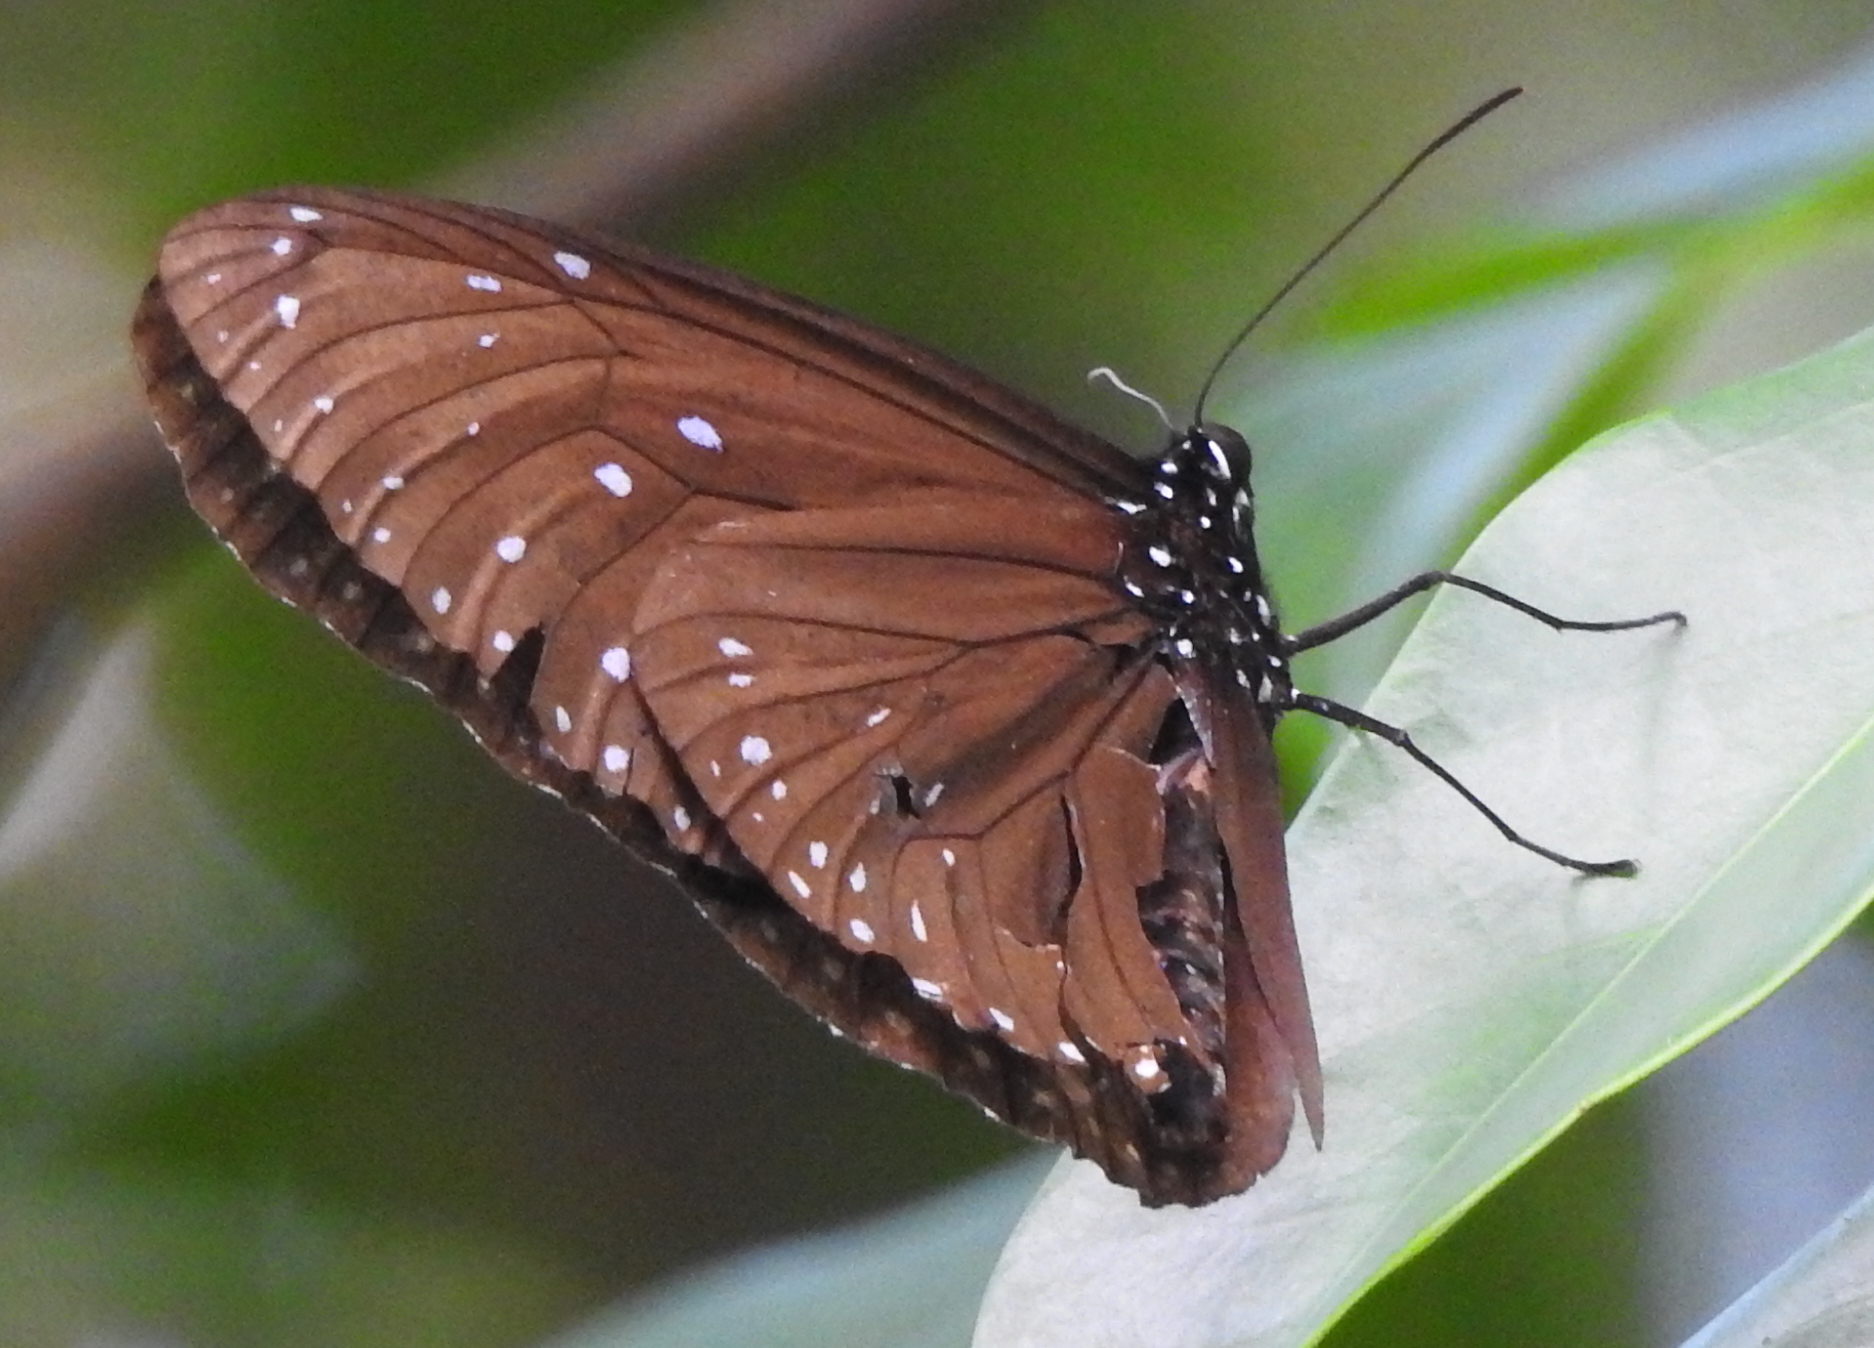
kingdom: Animalia
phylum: Arthropoda
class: Insecta
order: Lepidoptera
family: Nymphalidae
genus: Euploea
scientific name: Euploea mulciber
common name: Striped blue crow butterfly
